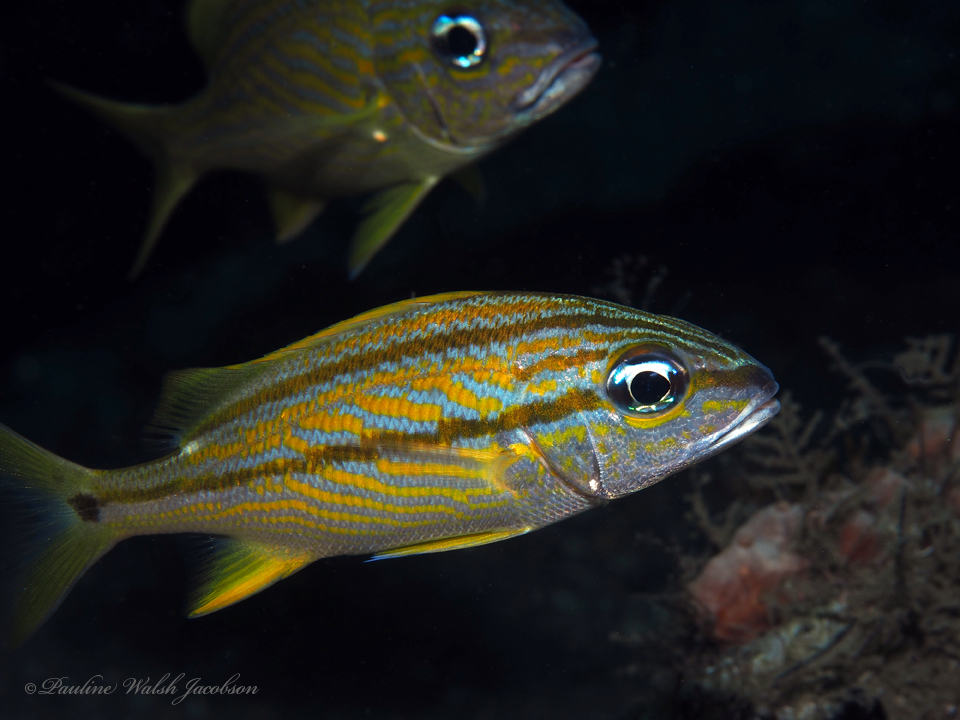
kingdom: Animalia
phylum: Chordata
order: Perciformes
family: Haemulidae
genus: Haemulon
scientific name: Haemulon flavolineatum
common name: French grunt
